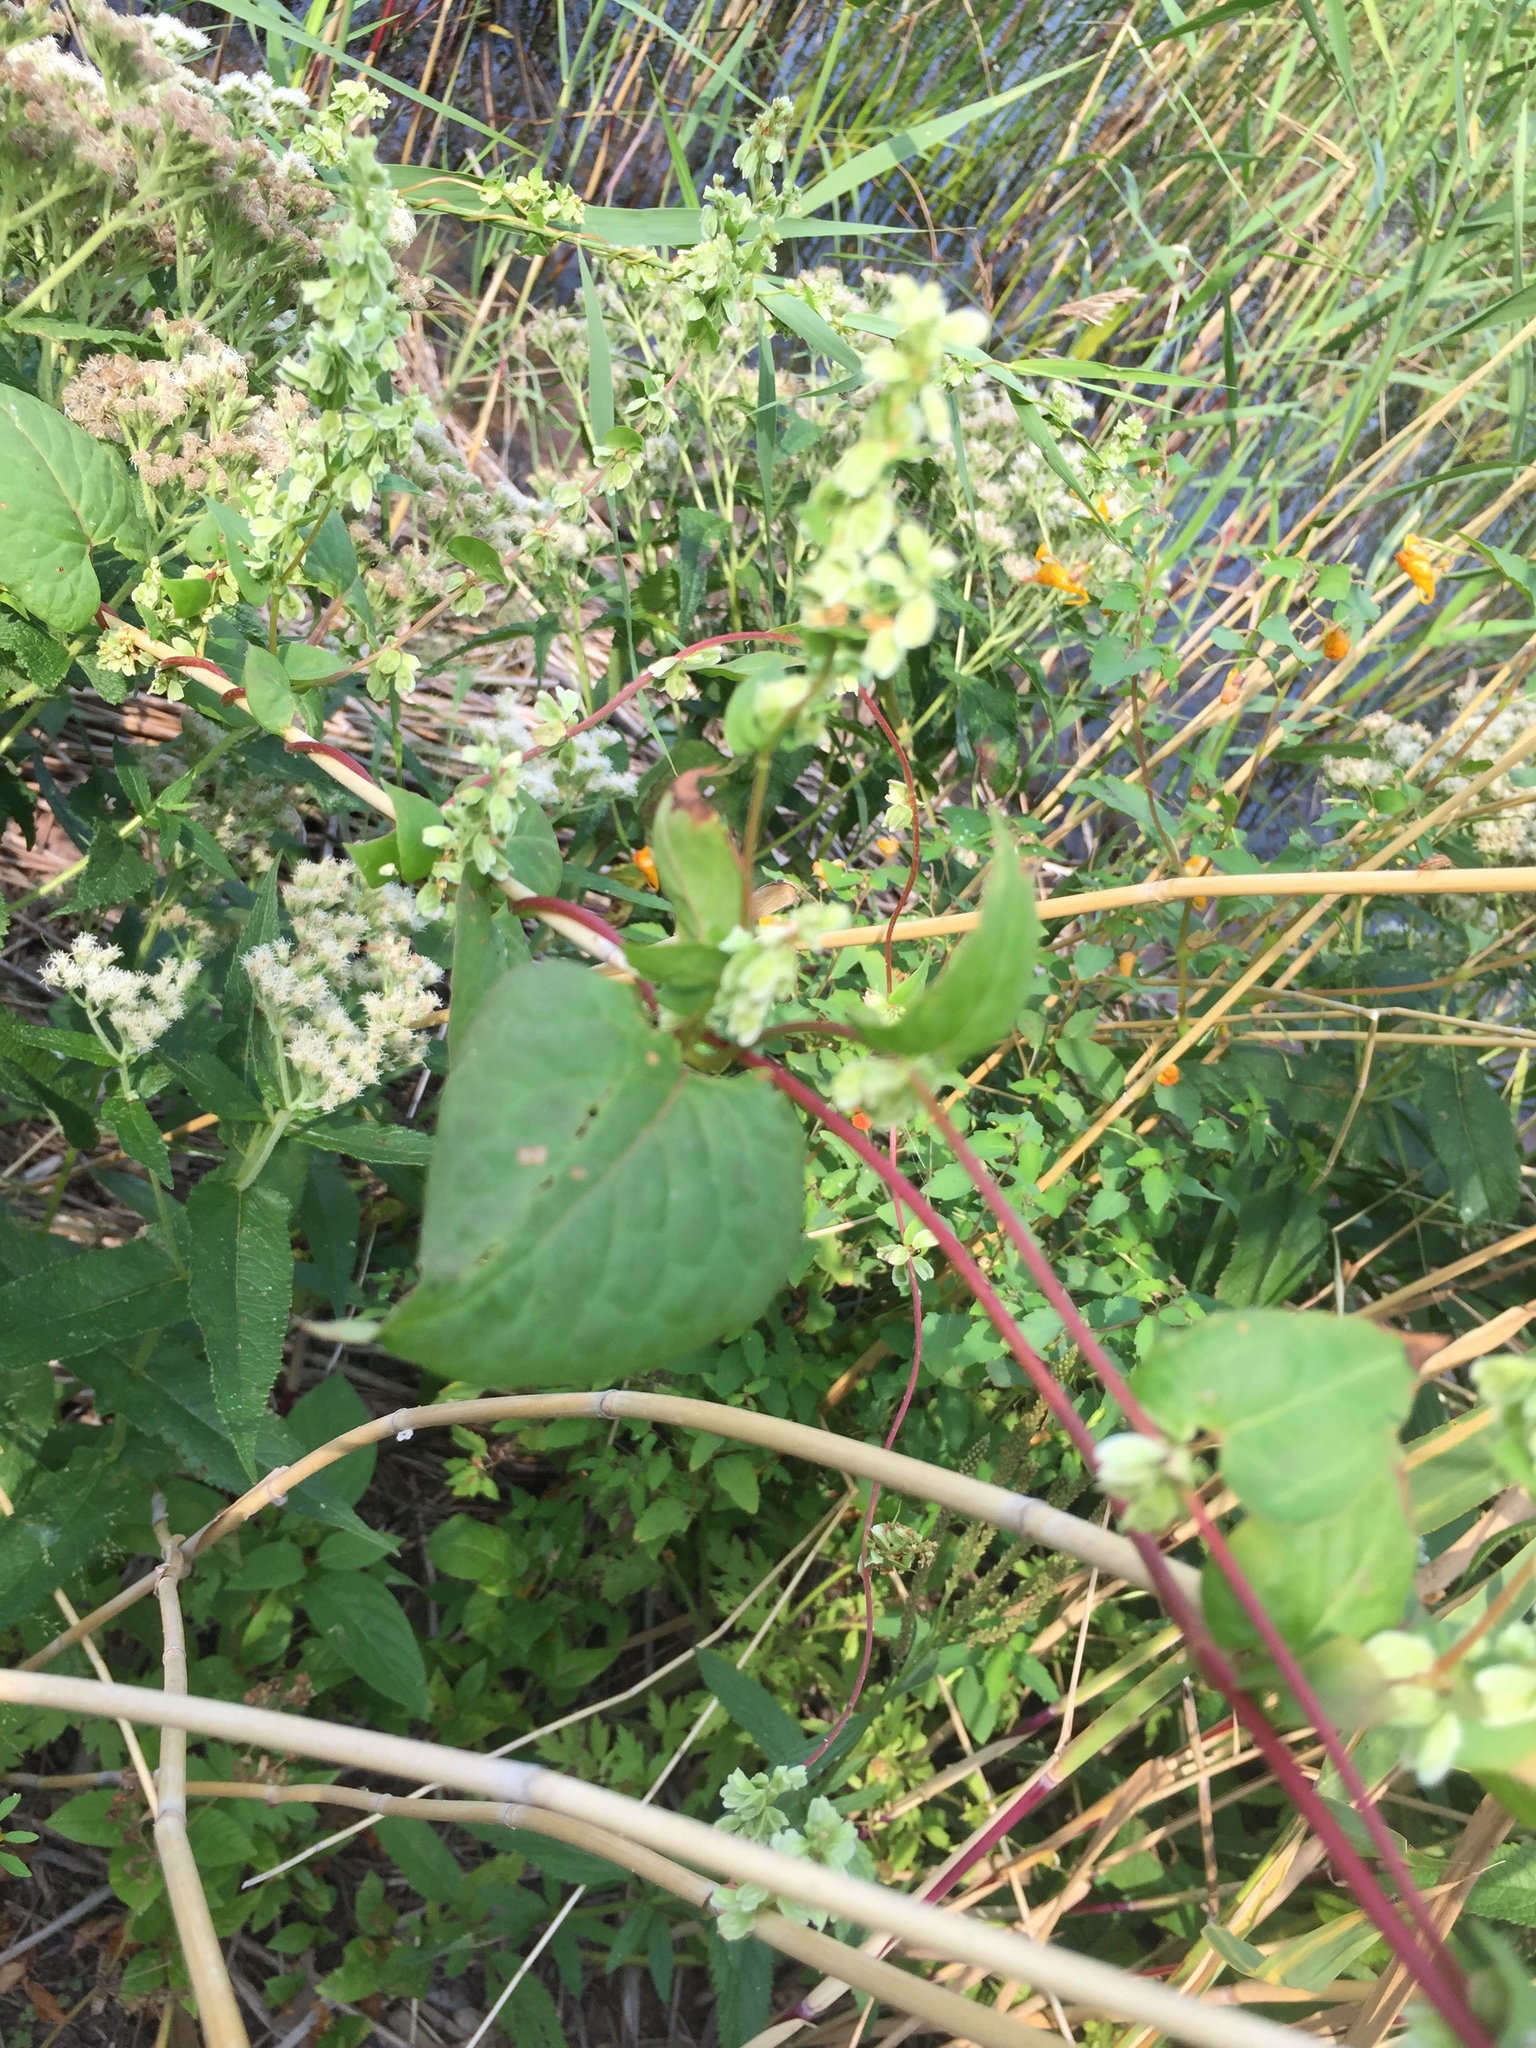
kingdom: Plantae
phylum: Tracheophyta
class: Magnoliopsida
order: Caryophyllales
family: Polygonaceae
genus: Fallopia
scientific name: Fallopia scandens
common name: Climbing false buckwheat
